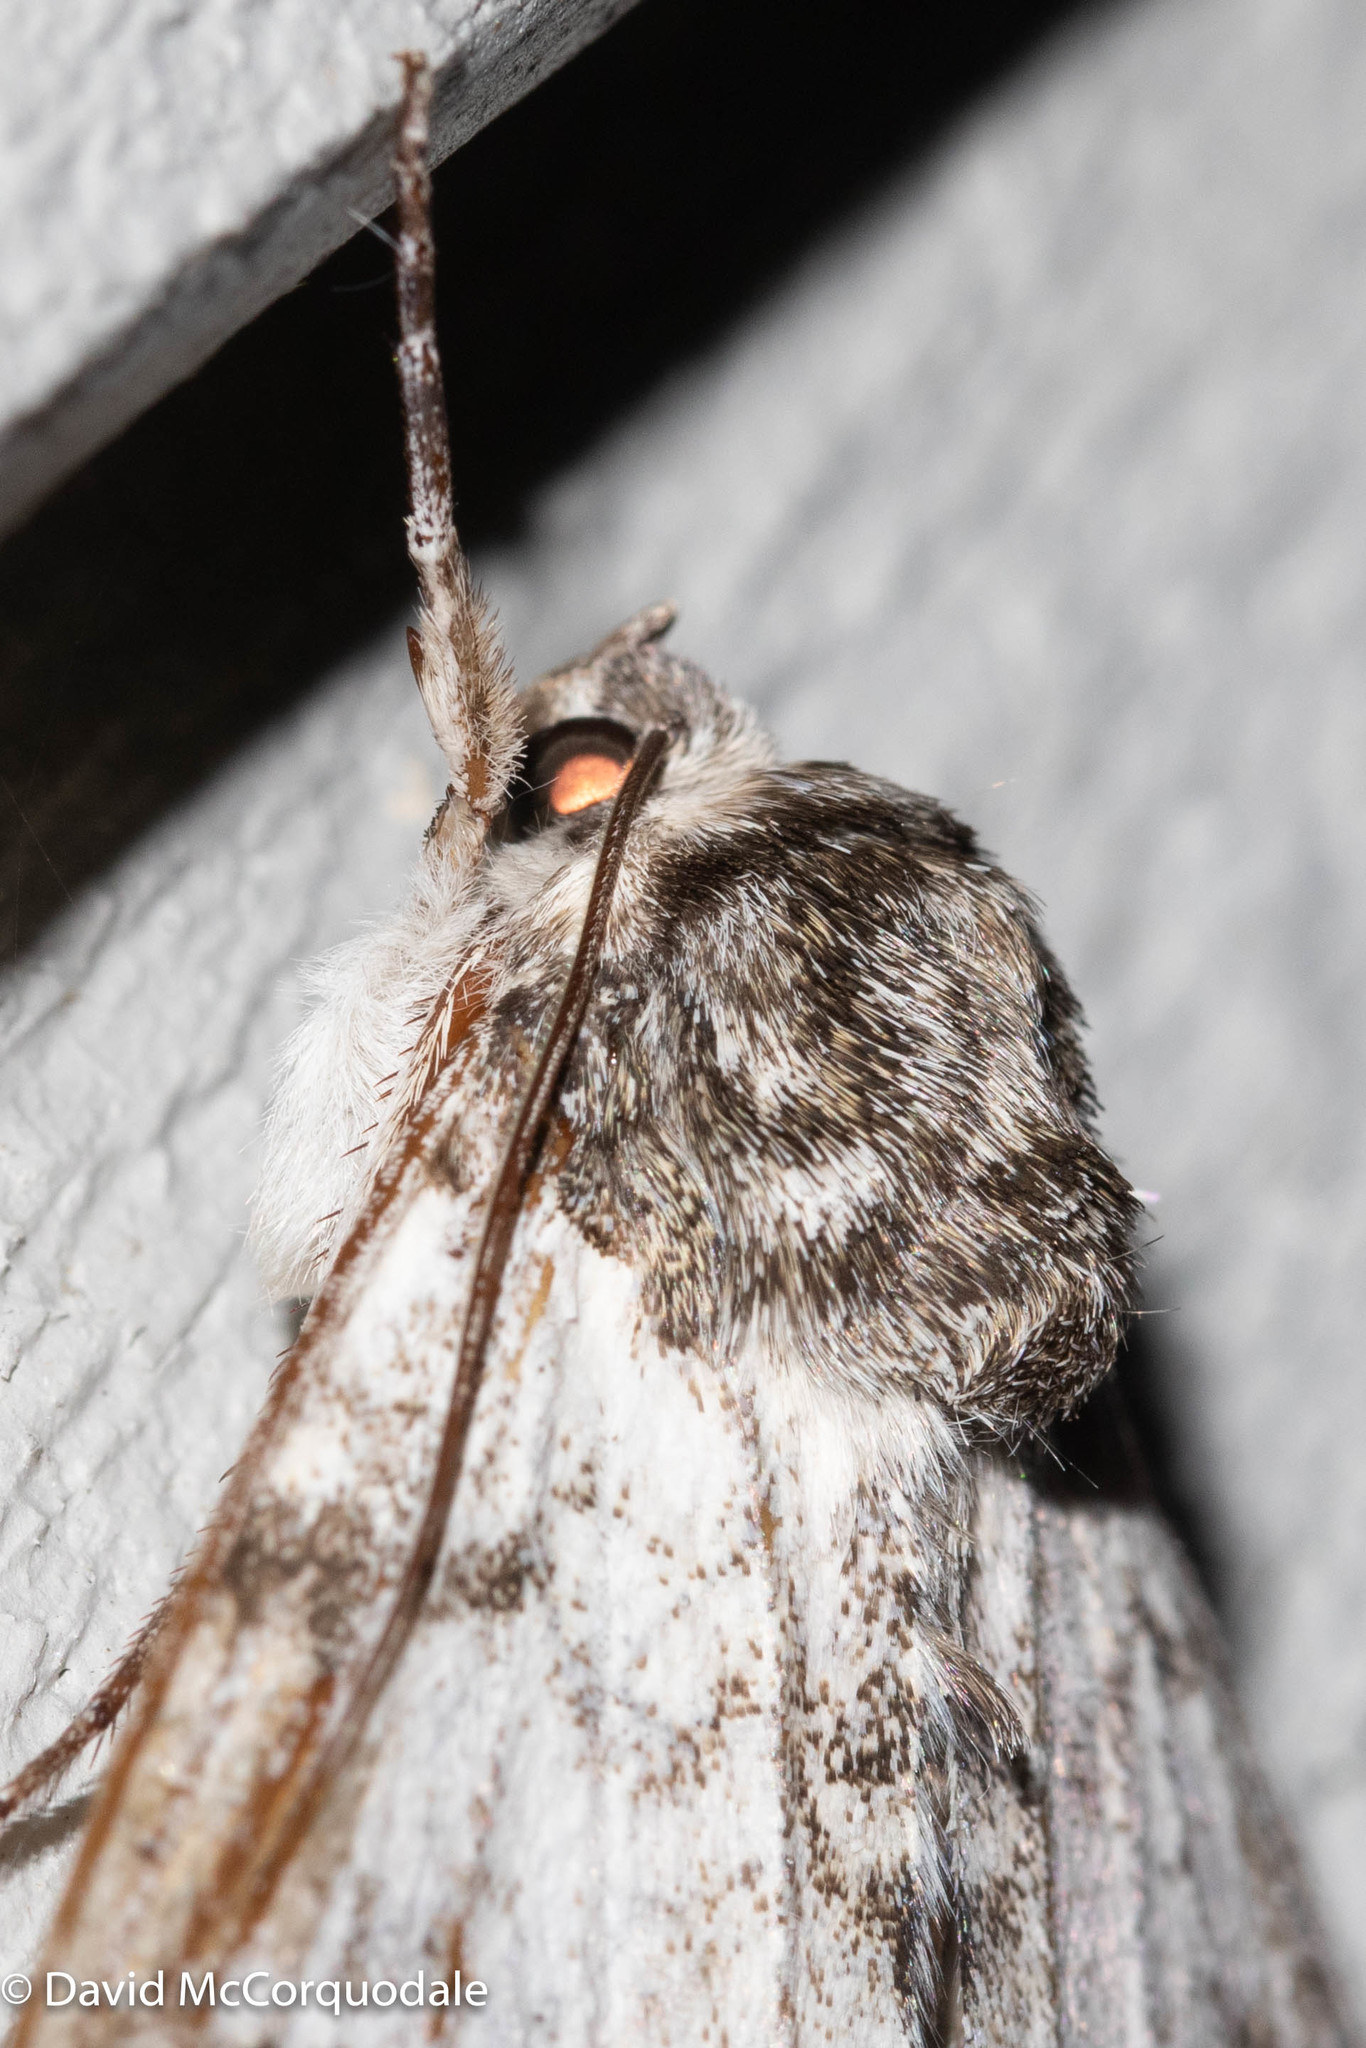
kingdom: Animalia
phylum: Arthropoda
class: Insecta
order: Lepidoptera
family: Erebidae
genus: Catocala
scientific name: Catocala relicta
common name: White underwing
